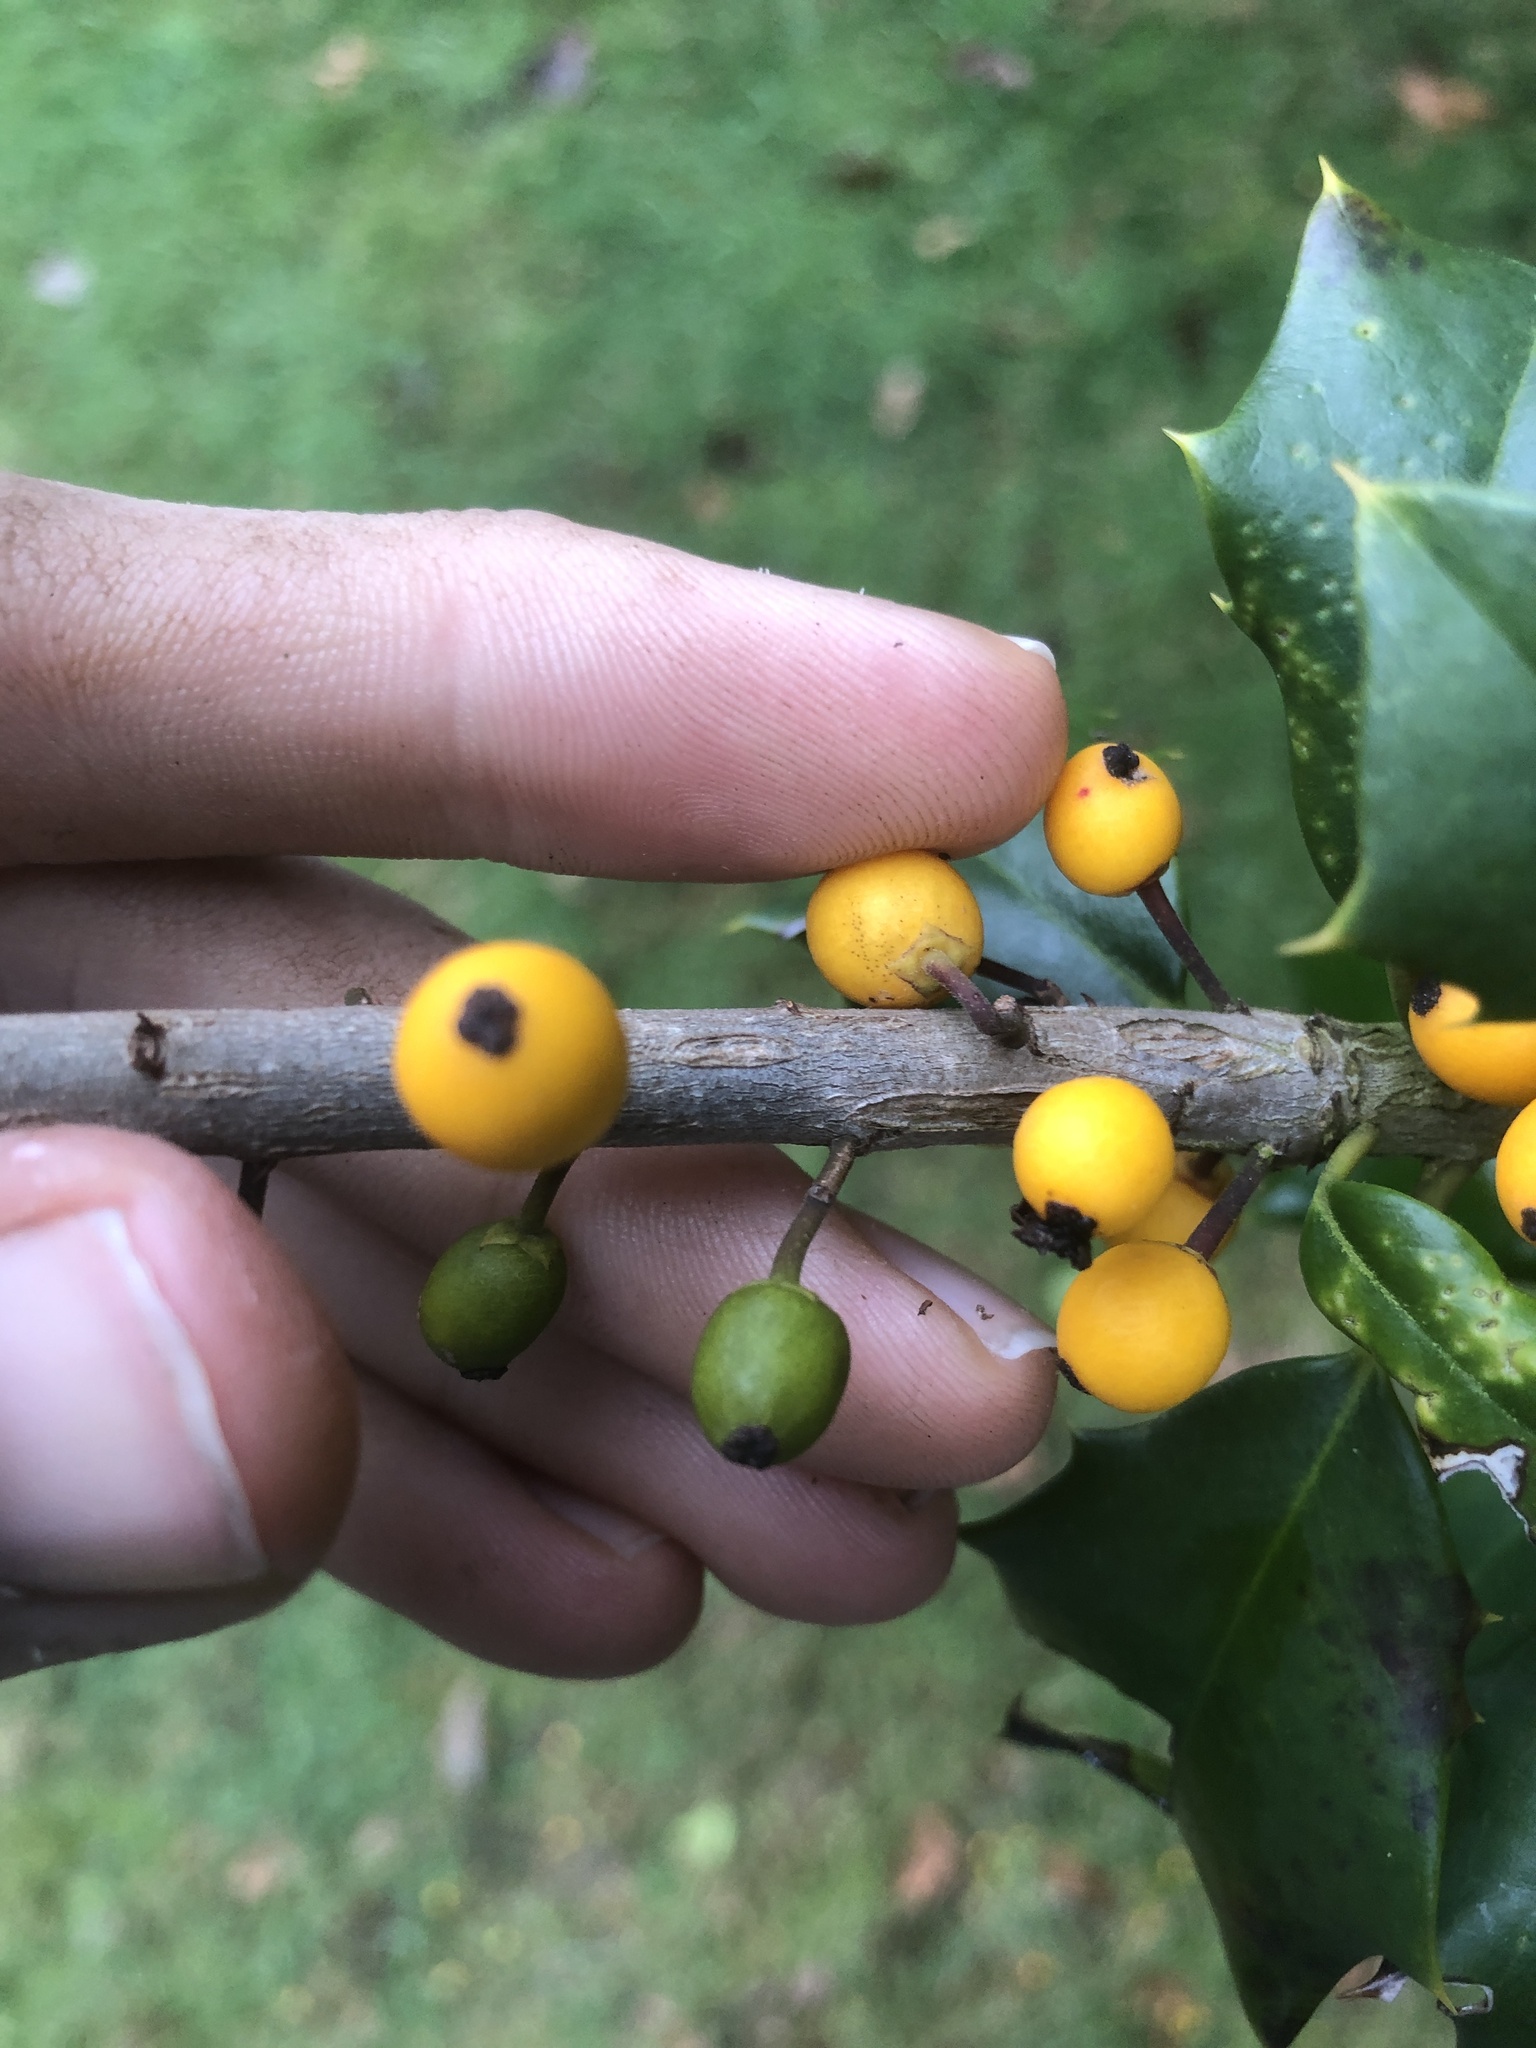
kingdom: Animalia
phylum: Arthropoda
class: Insecta
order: Diptera
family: Cecidomyiidae
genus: Asphondylia
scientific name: Asphondylia ilicicola
